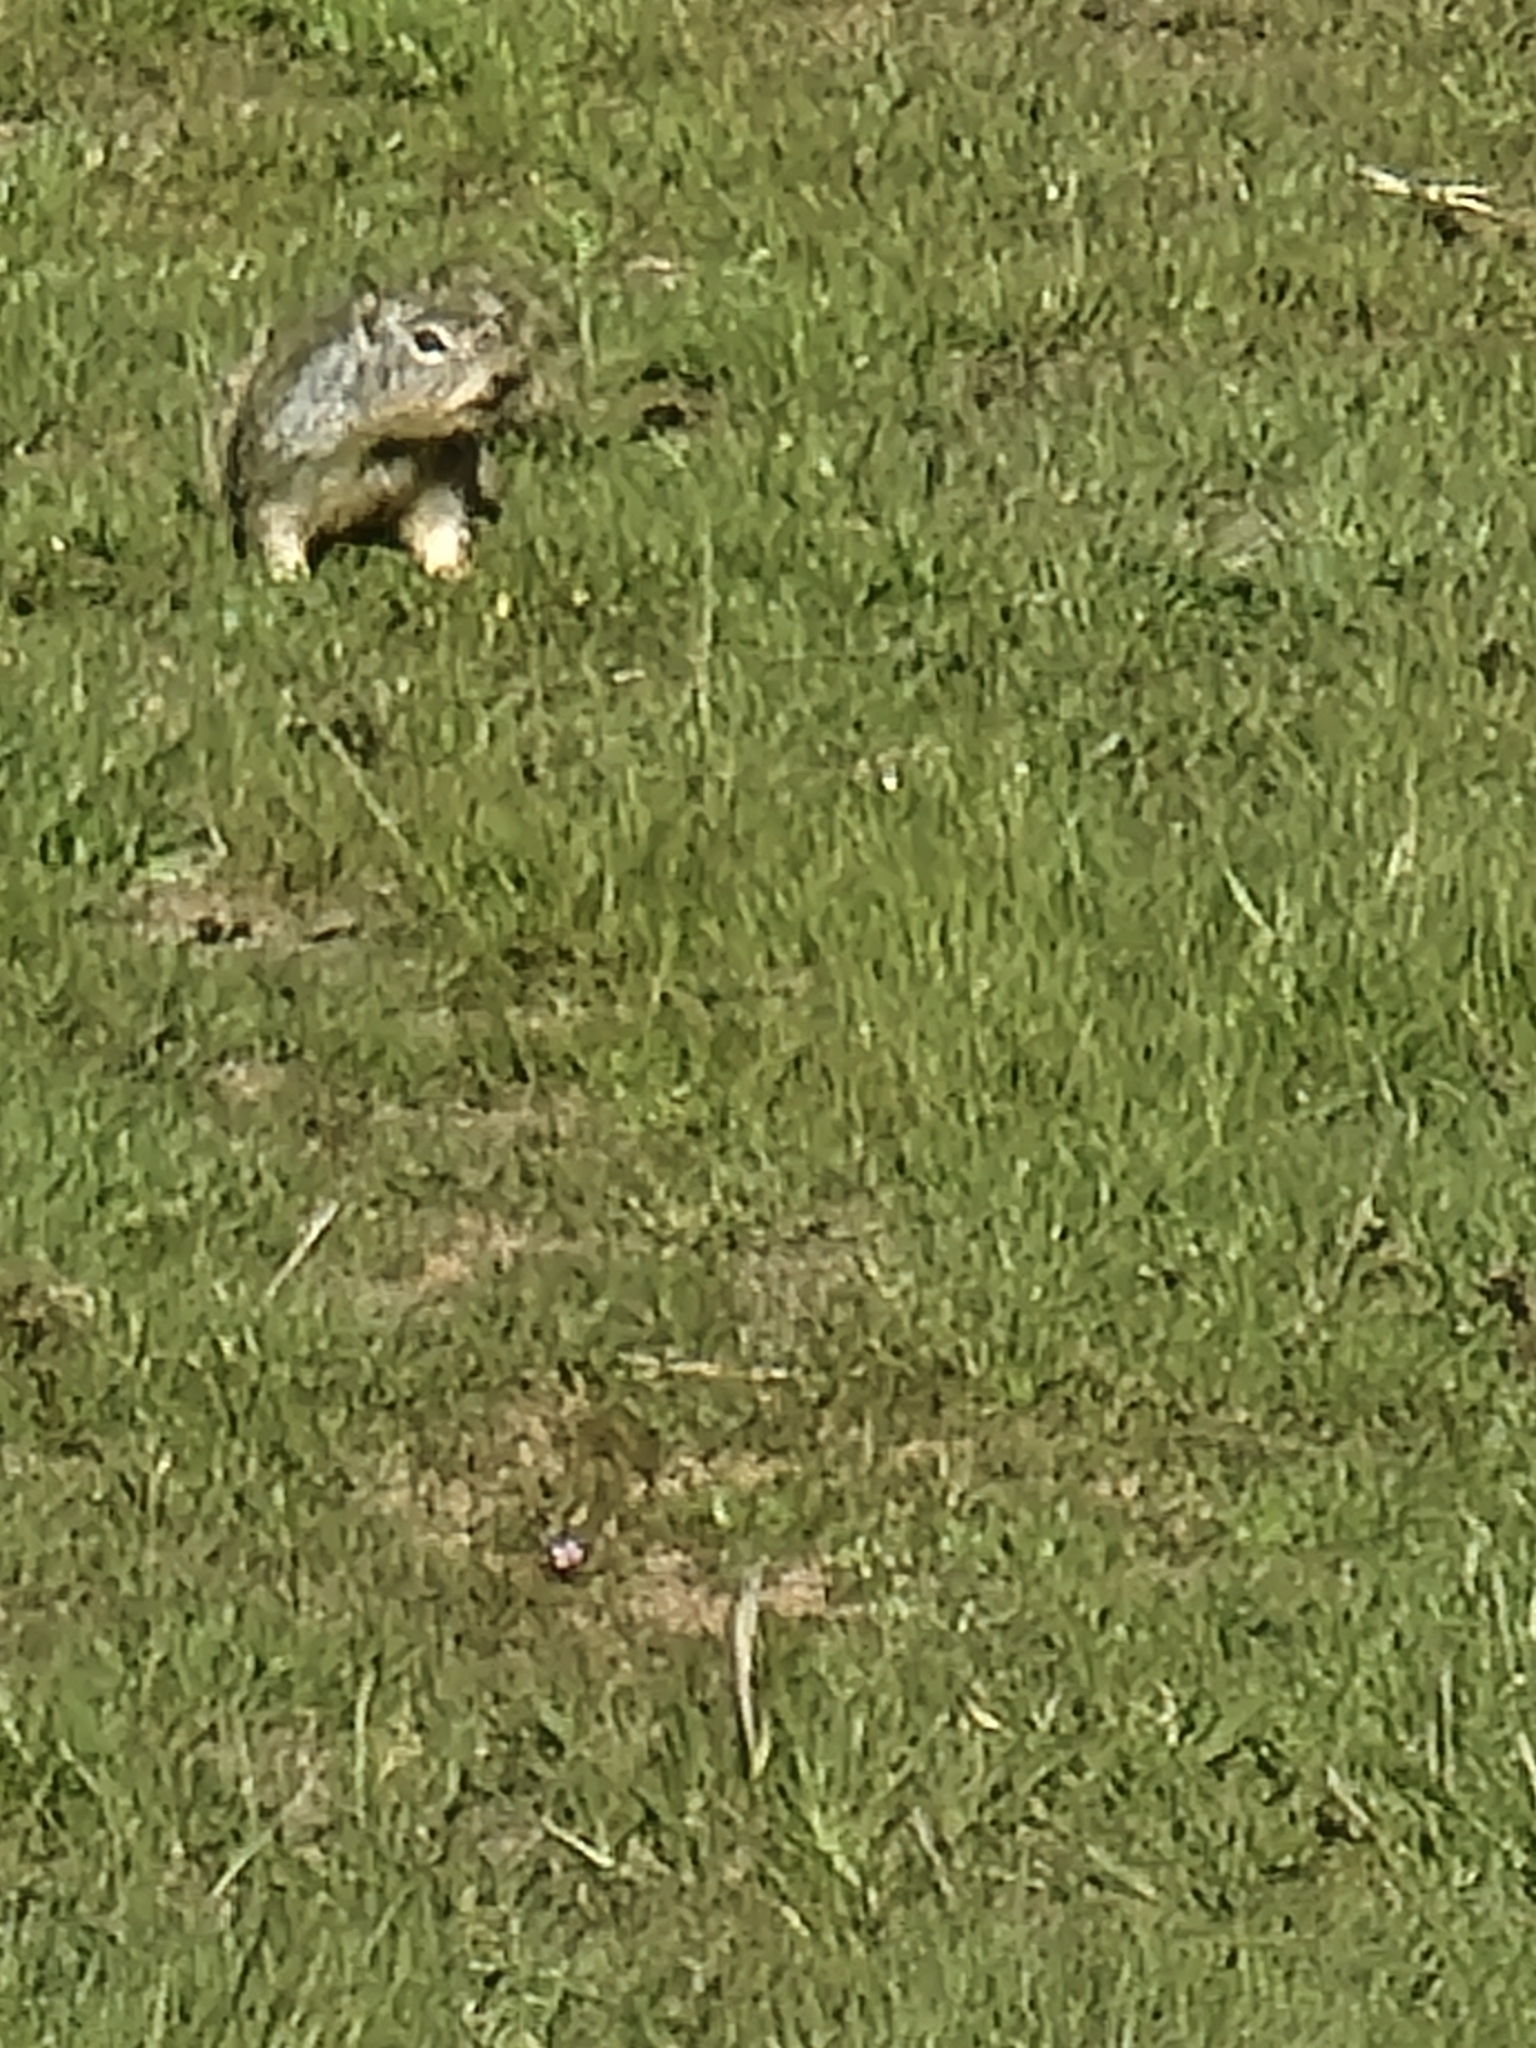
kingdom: Animalia
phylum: Chordata
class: Mammalia
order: Rodentia
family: Sciuridae
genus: Otospermophilus
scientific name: Otospermophilus beecheyi
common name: California ground squirrel
